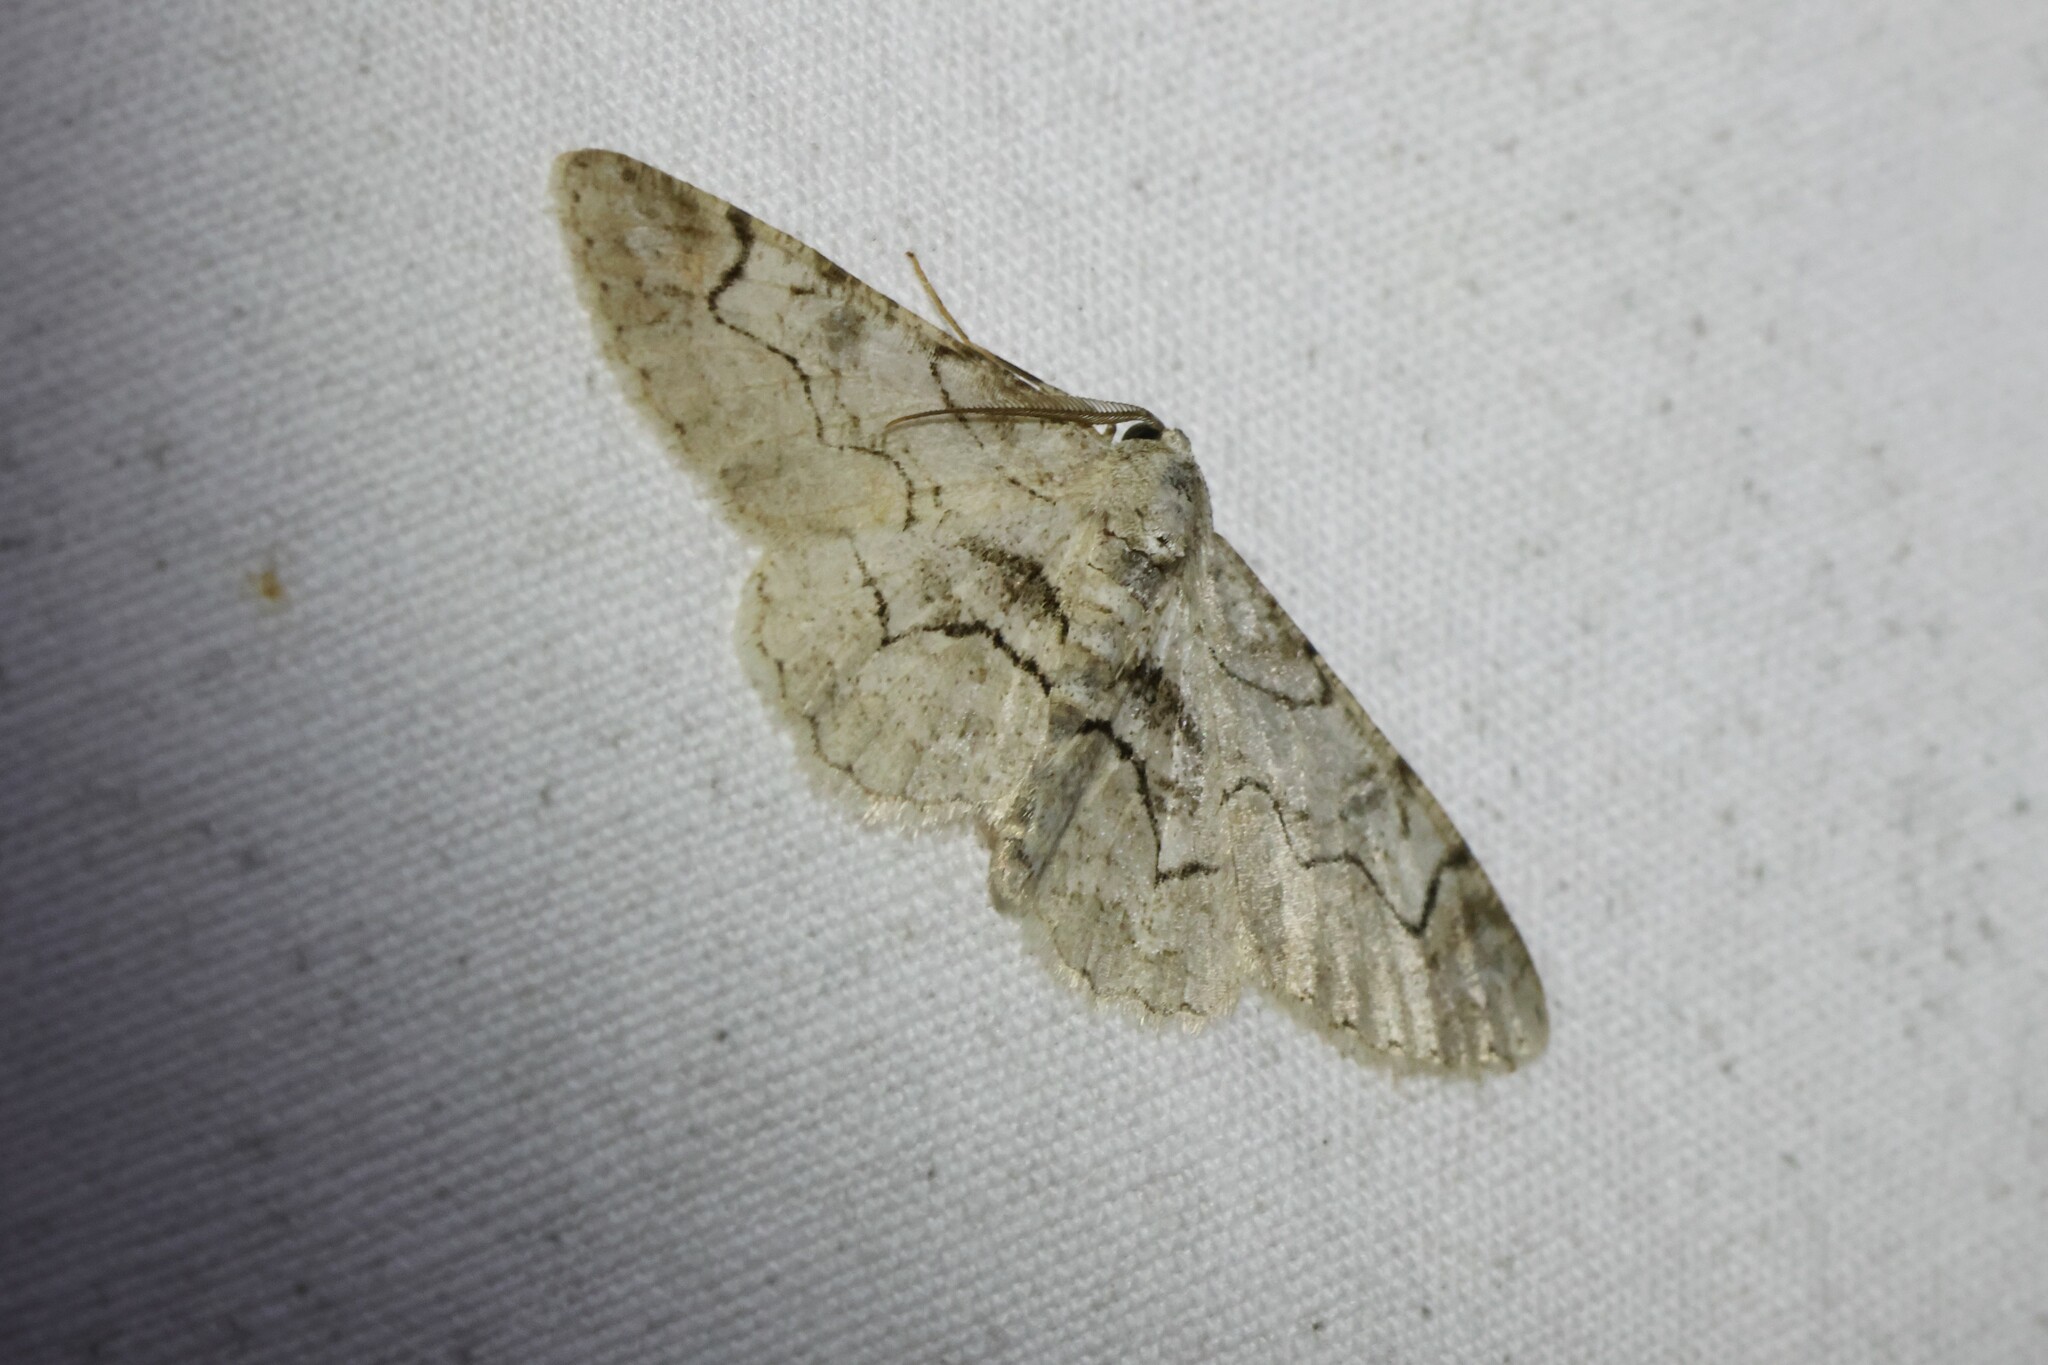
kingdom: Animalia
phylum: Arthropoda
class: Insecta
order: Lepidoptera
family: Geometridae
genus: Iridopsis
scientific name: Iridopsis larvaria
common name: Bent-line gray
